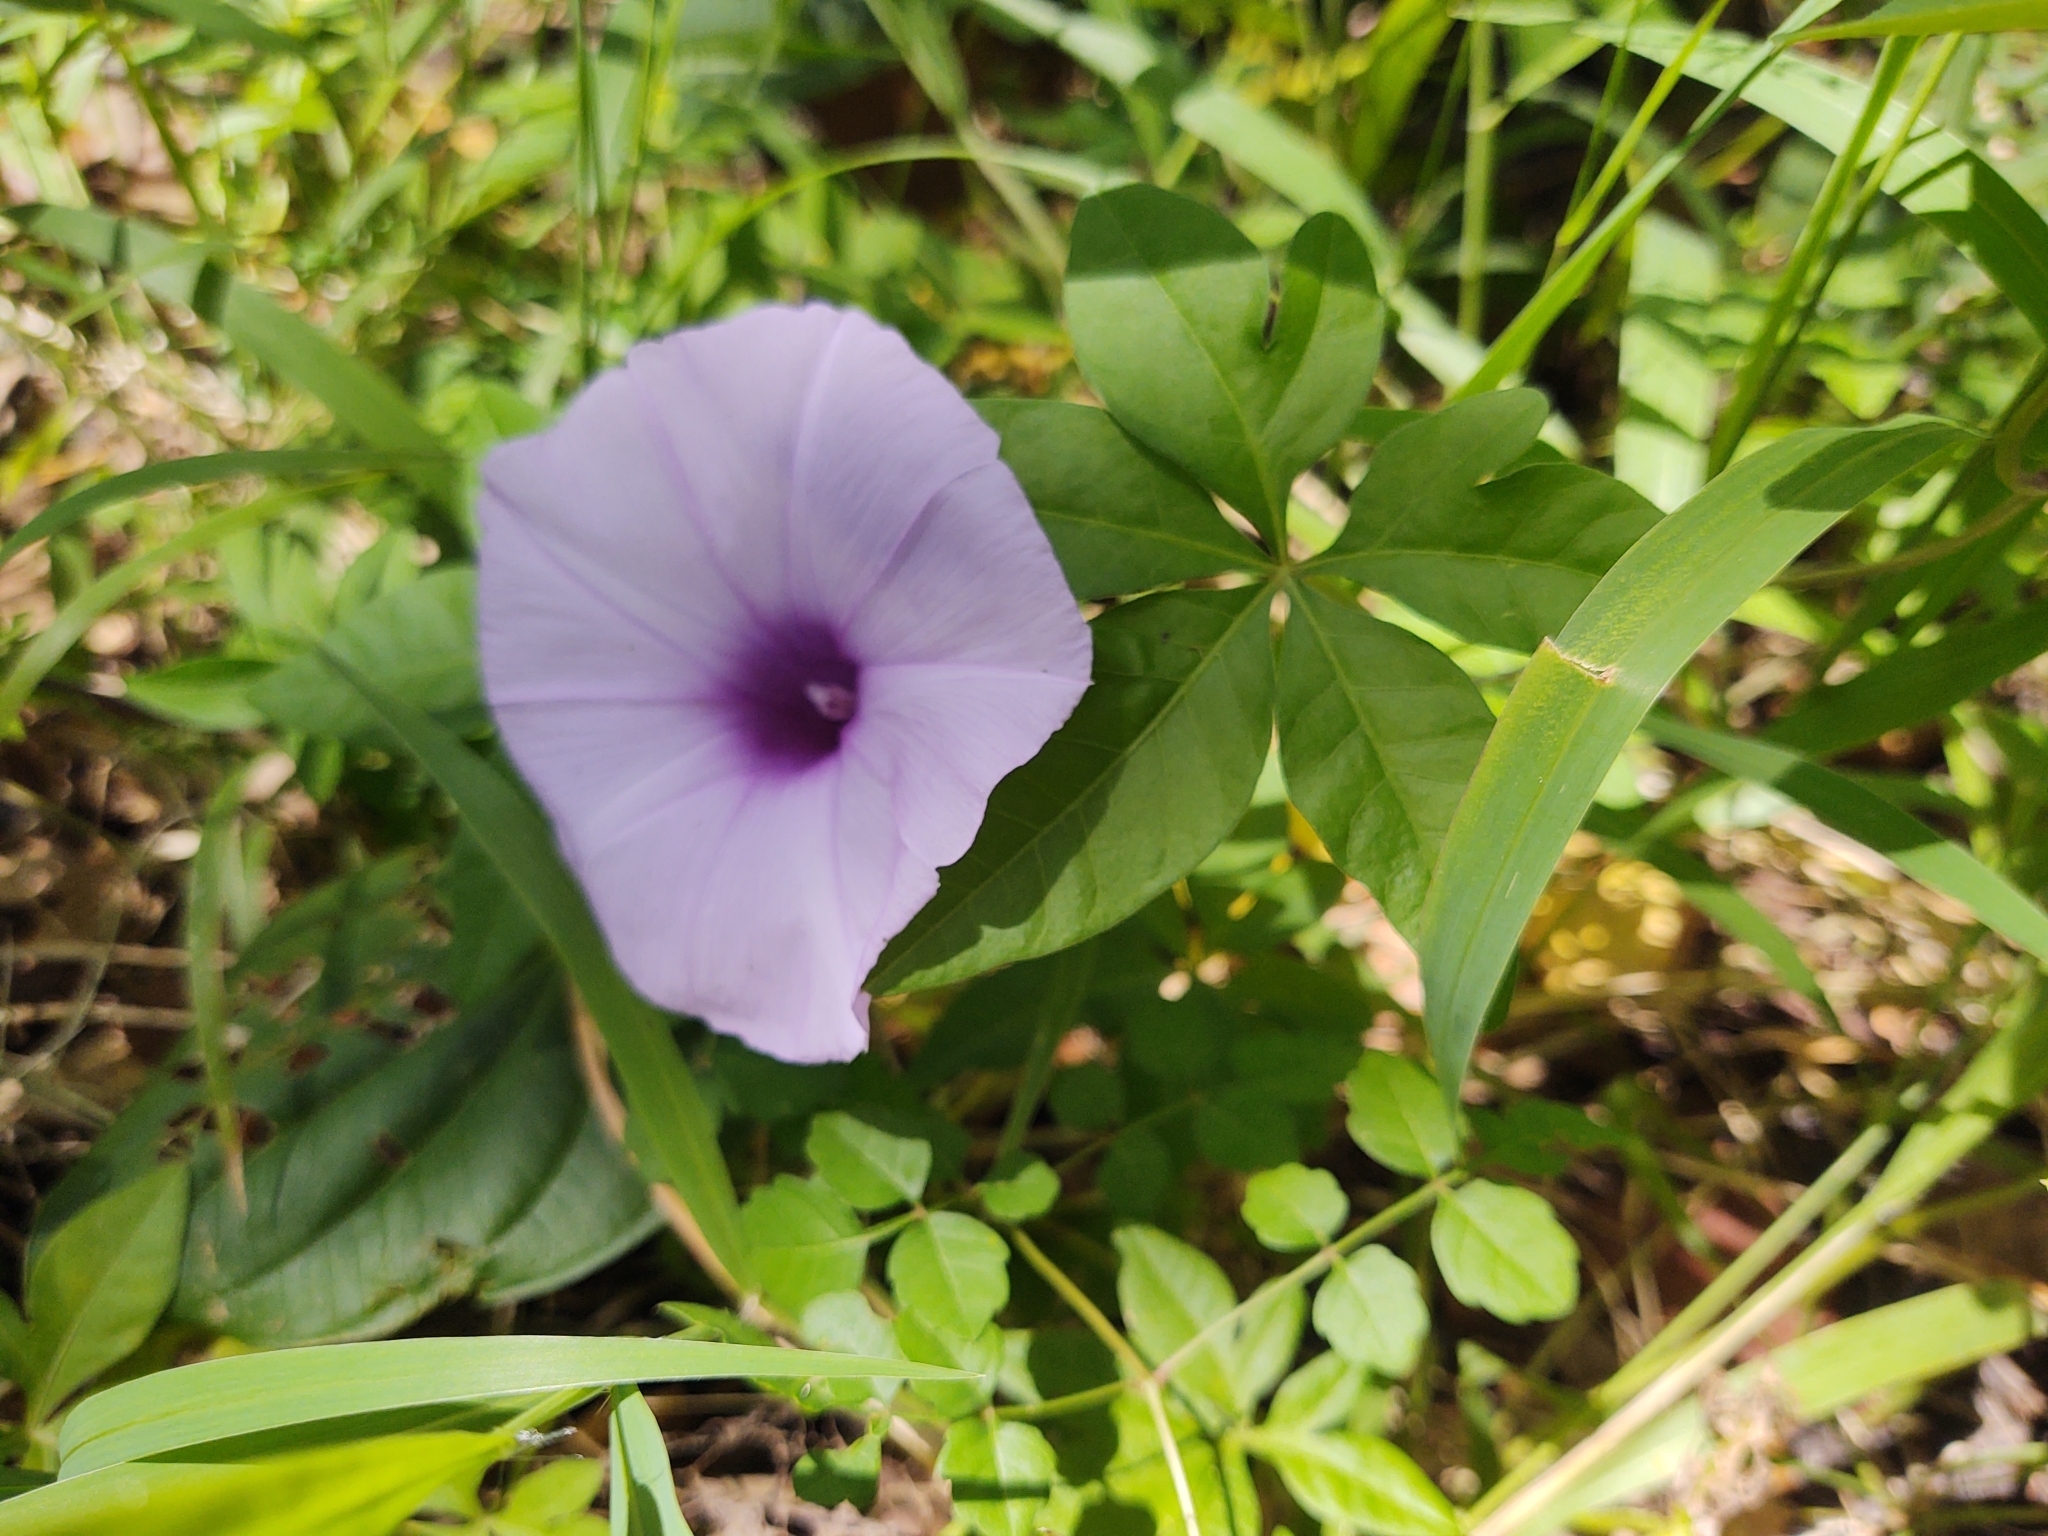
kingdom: Plantae
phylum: Tracheophyta
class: Magnoliopsida
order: Solanales
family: Convolvulaceae
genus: Ipomoea
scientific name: Ipomoea cairica
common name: Mile a minute vine
